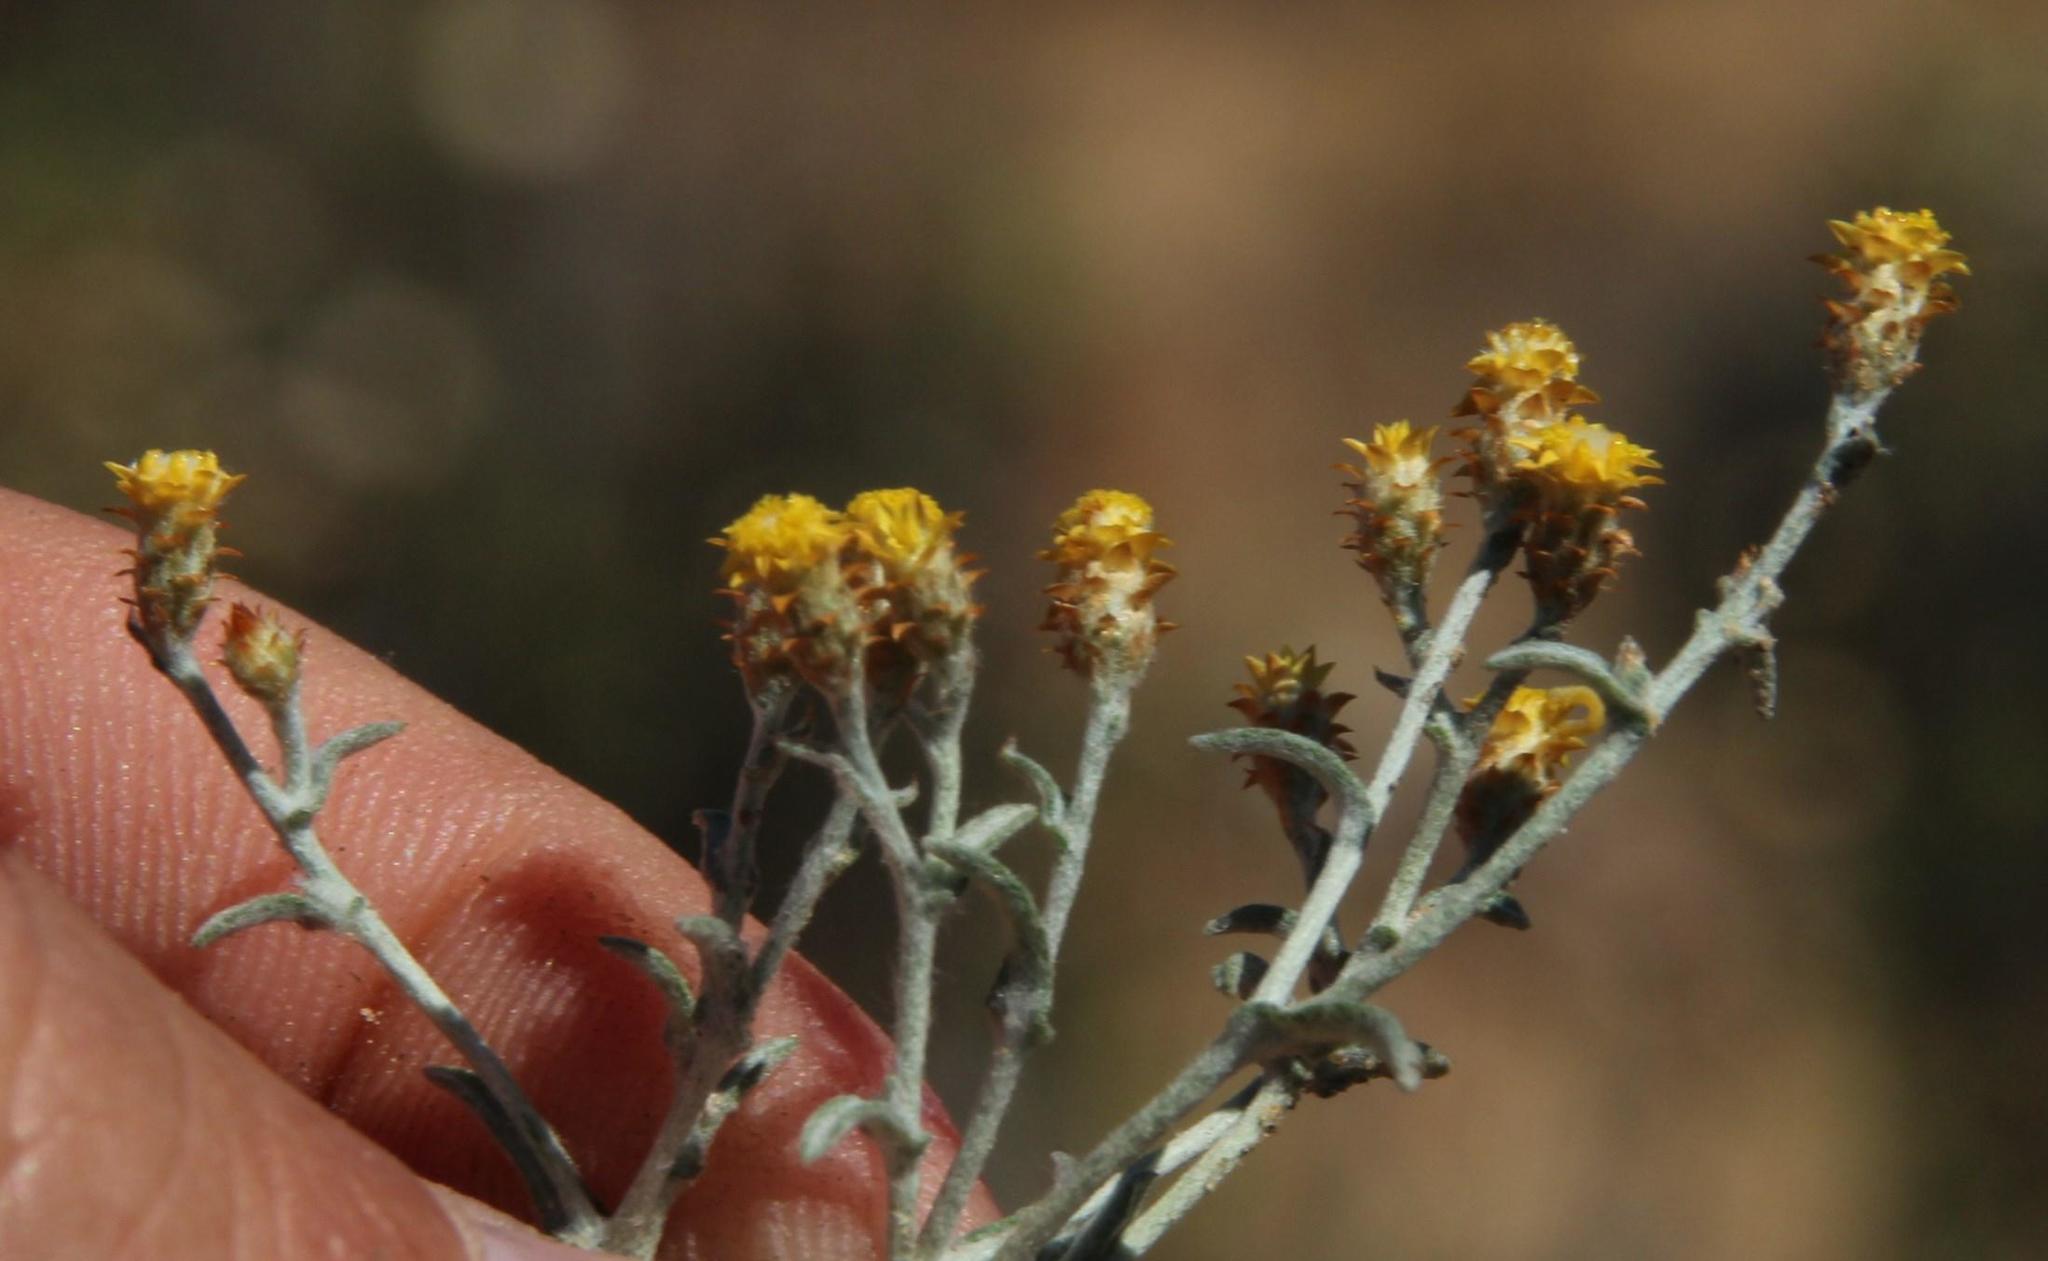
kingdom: Plantae
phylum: Tracheophyta
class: Magnoliopsida
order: Asterales
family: Asteraceae
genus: Helichrysum
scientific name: Helichrysum cylindriflorum
